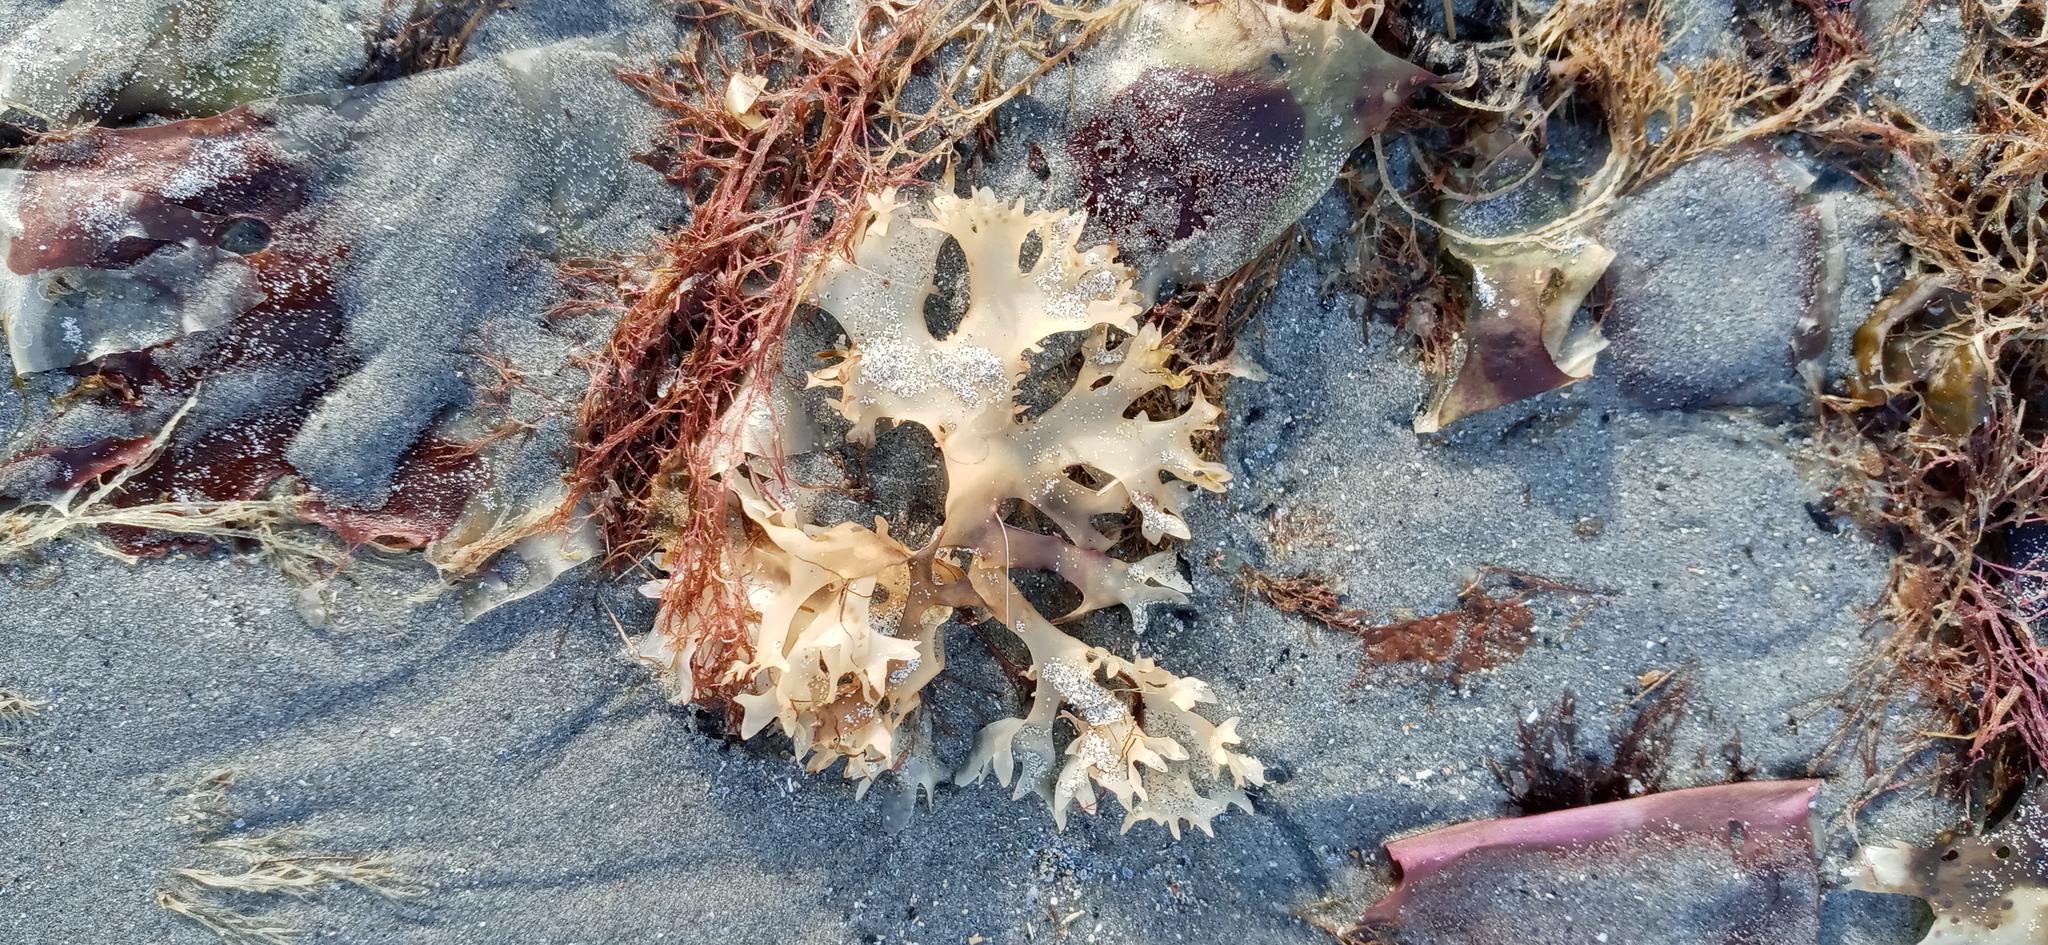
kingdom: Plantae
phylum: Rhodophyta
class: Florideophyceae
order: Gigartinales
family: Gigartinaceae
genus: Chondrus
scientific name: Chondrus crispus
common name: Carrageen
